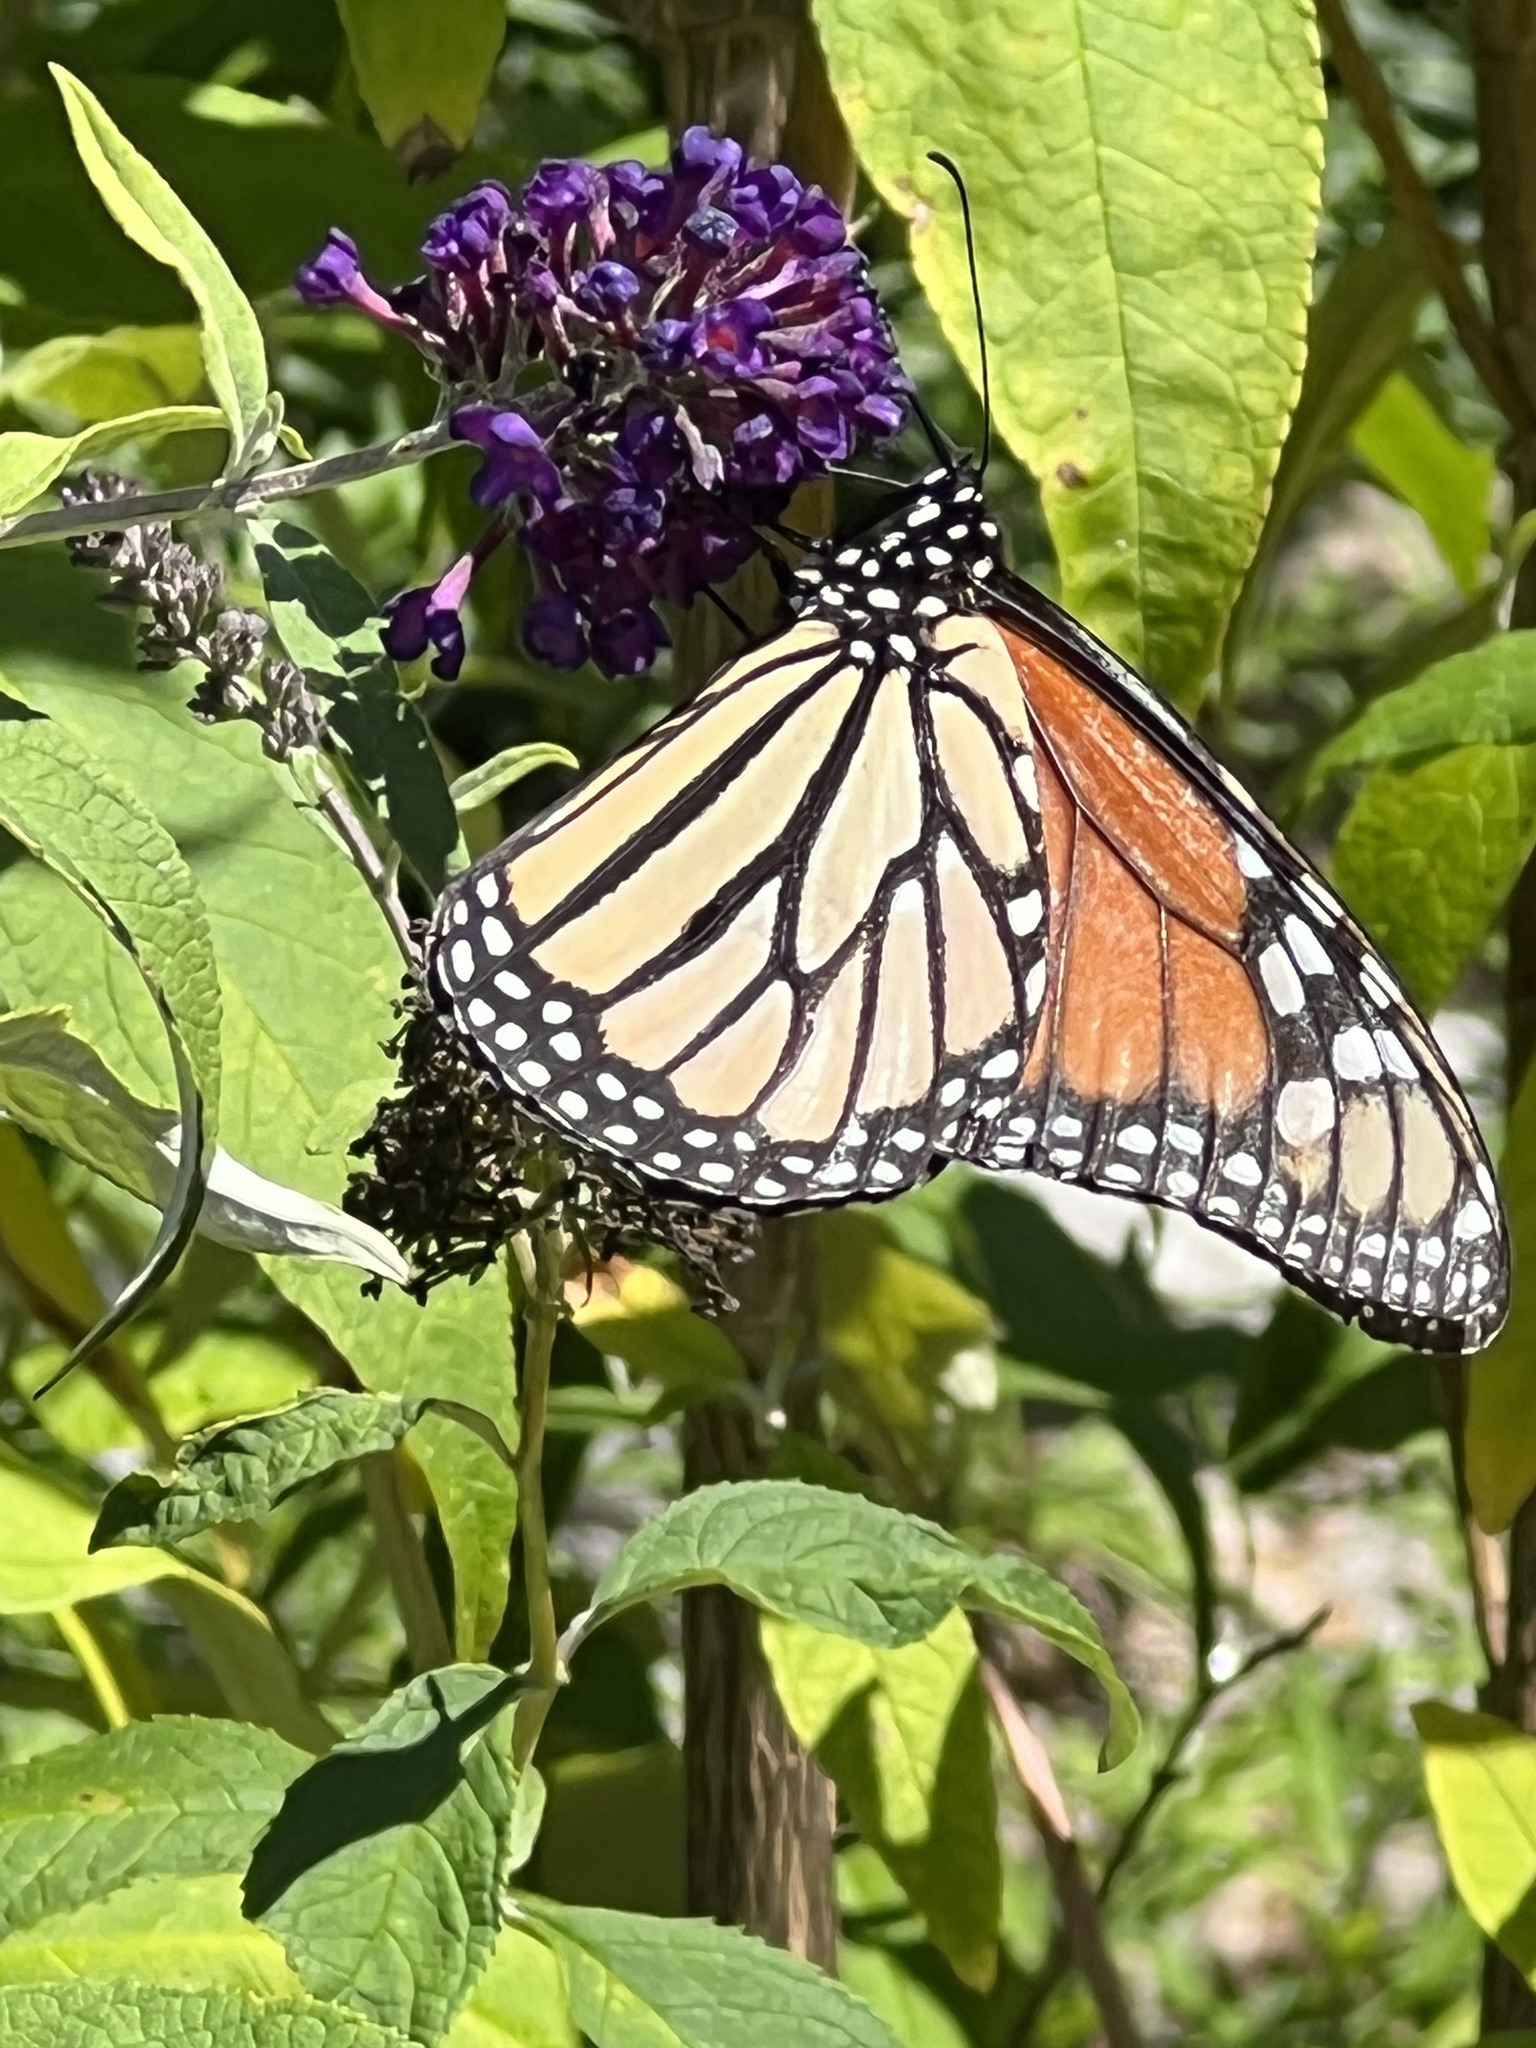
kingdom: Animalia
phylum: Arthropoda
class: Insecta
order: Lepidoptera
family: Nymphalidae
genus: Danaus
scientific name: Danaus plexippus
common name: Monarch
